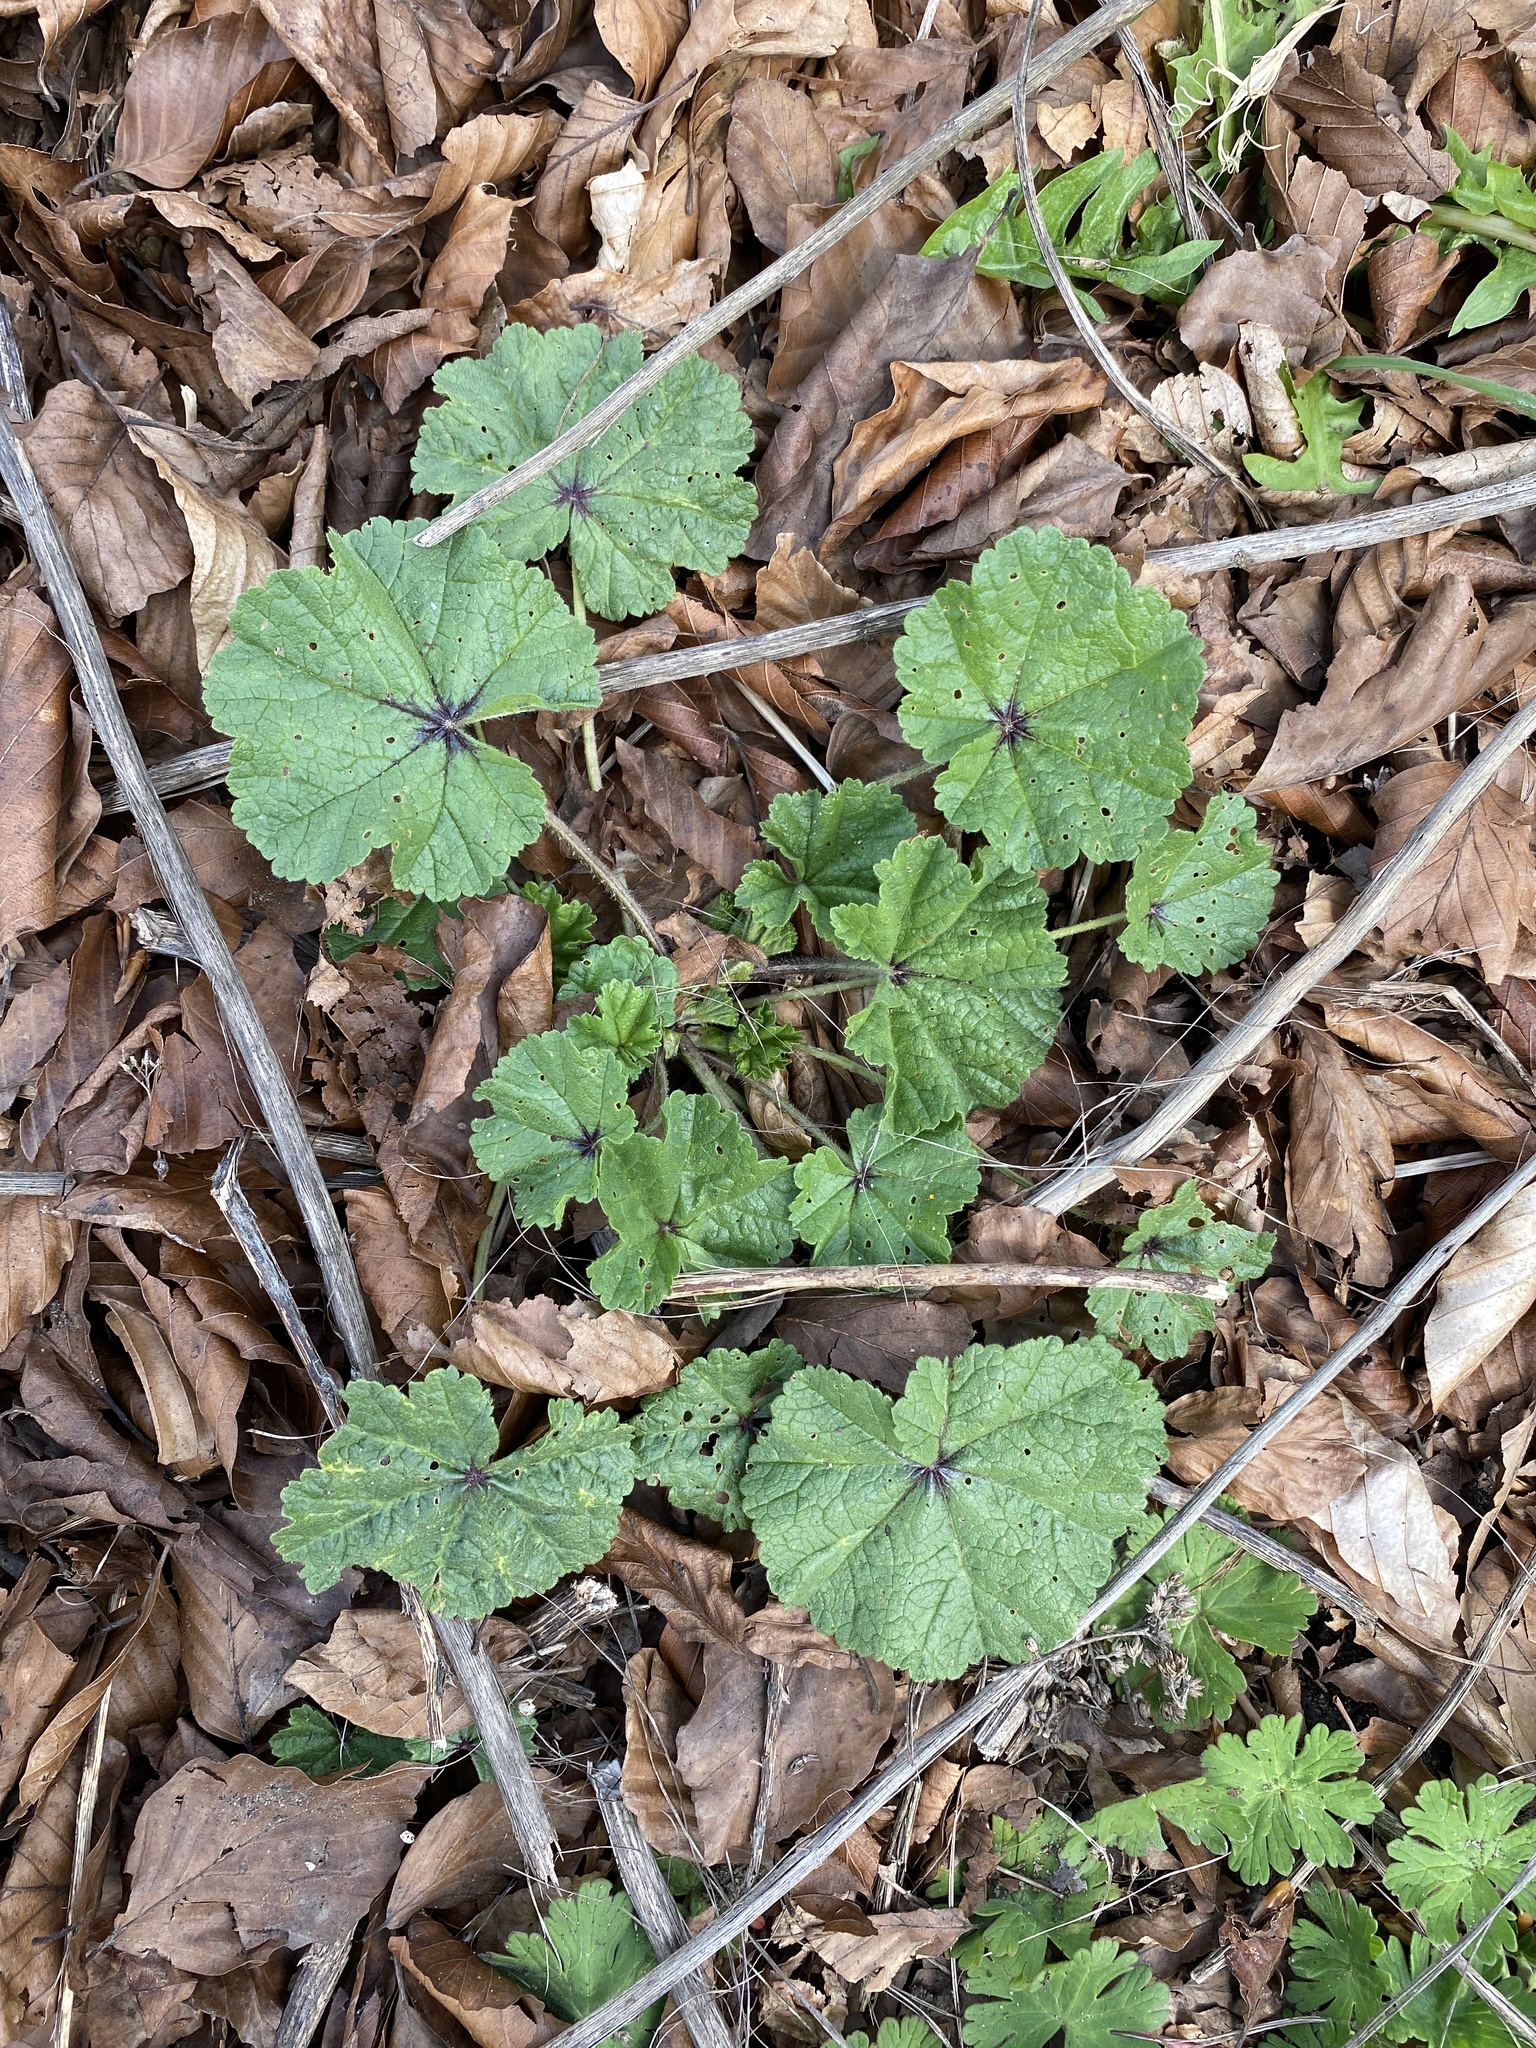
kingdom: Plantae
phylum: Tracheophyta
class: Magnoliopsida
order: Malvales
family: Malvaceae
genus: Malva
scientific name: Malva sylvestris
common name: Common mallow
